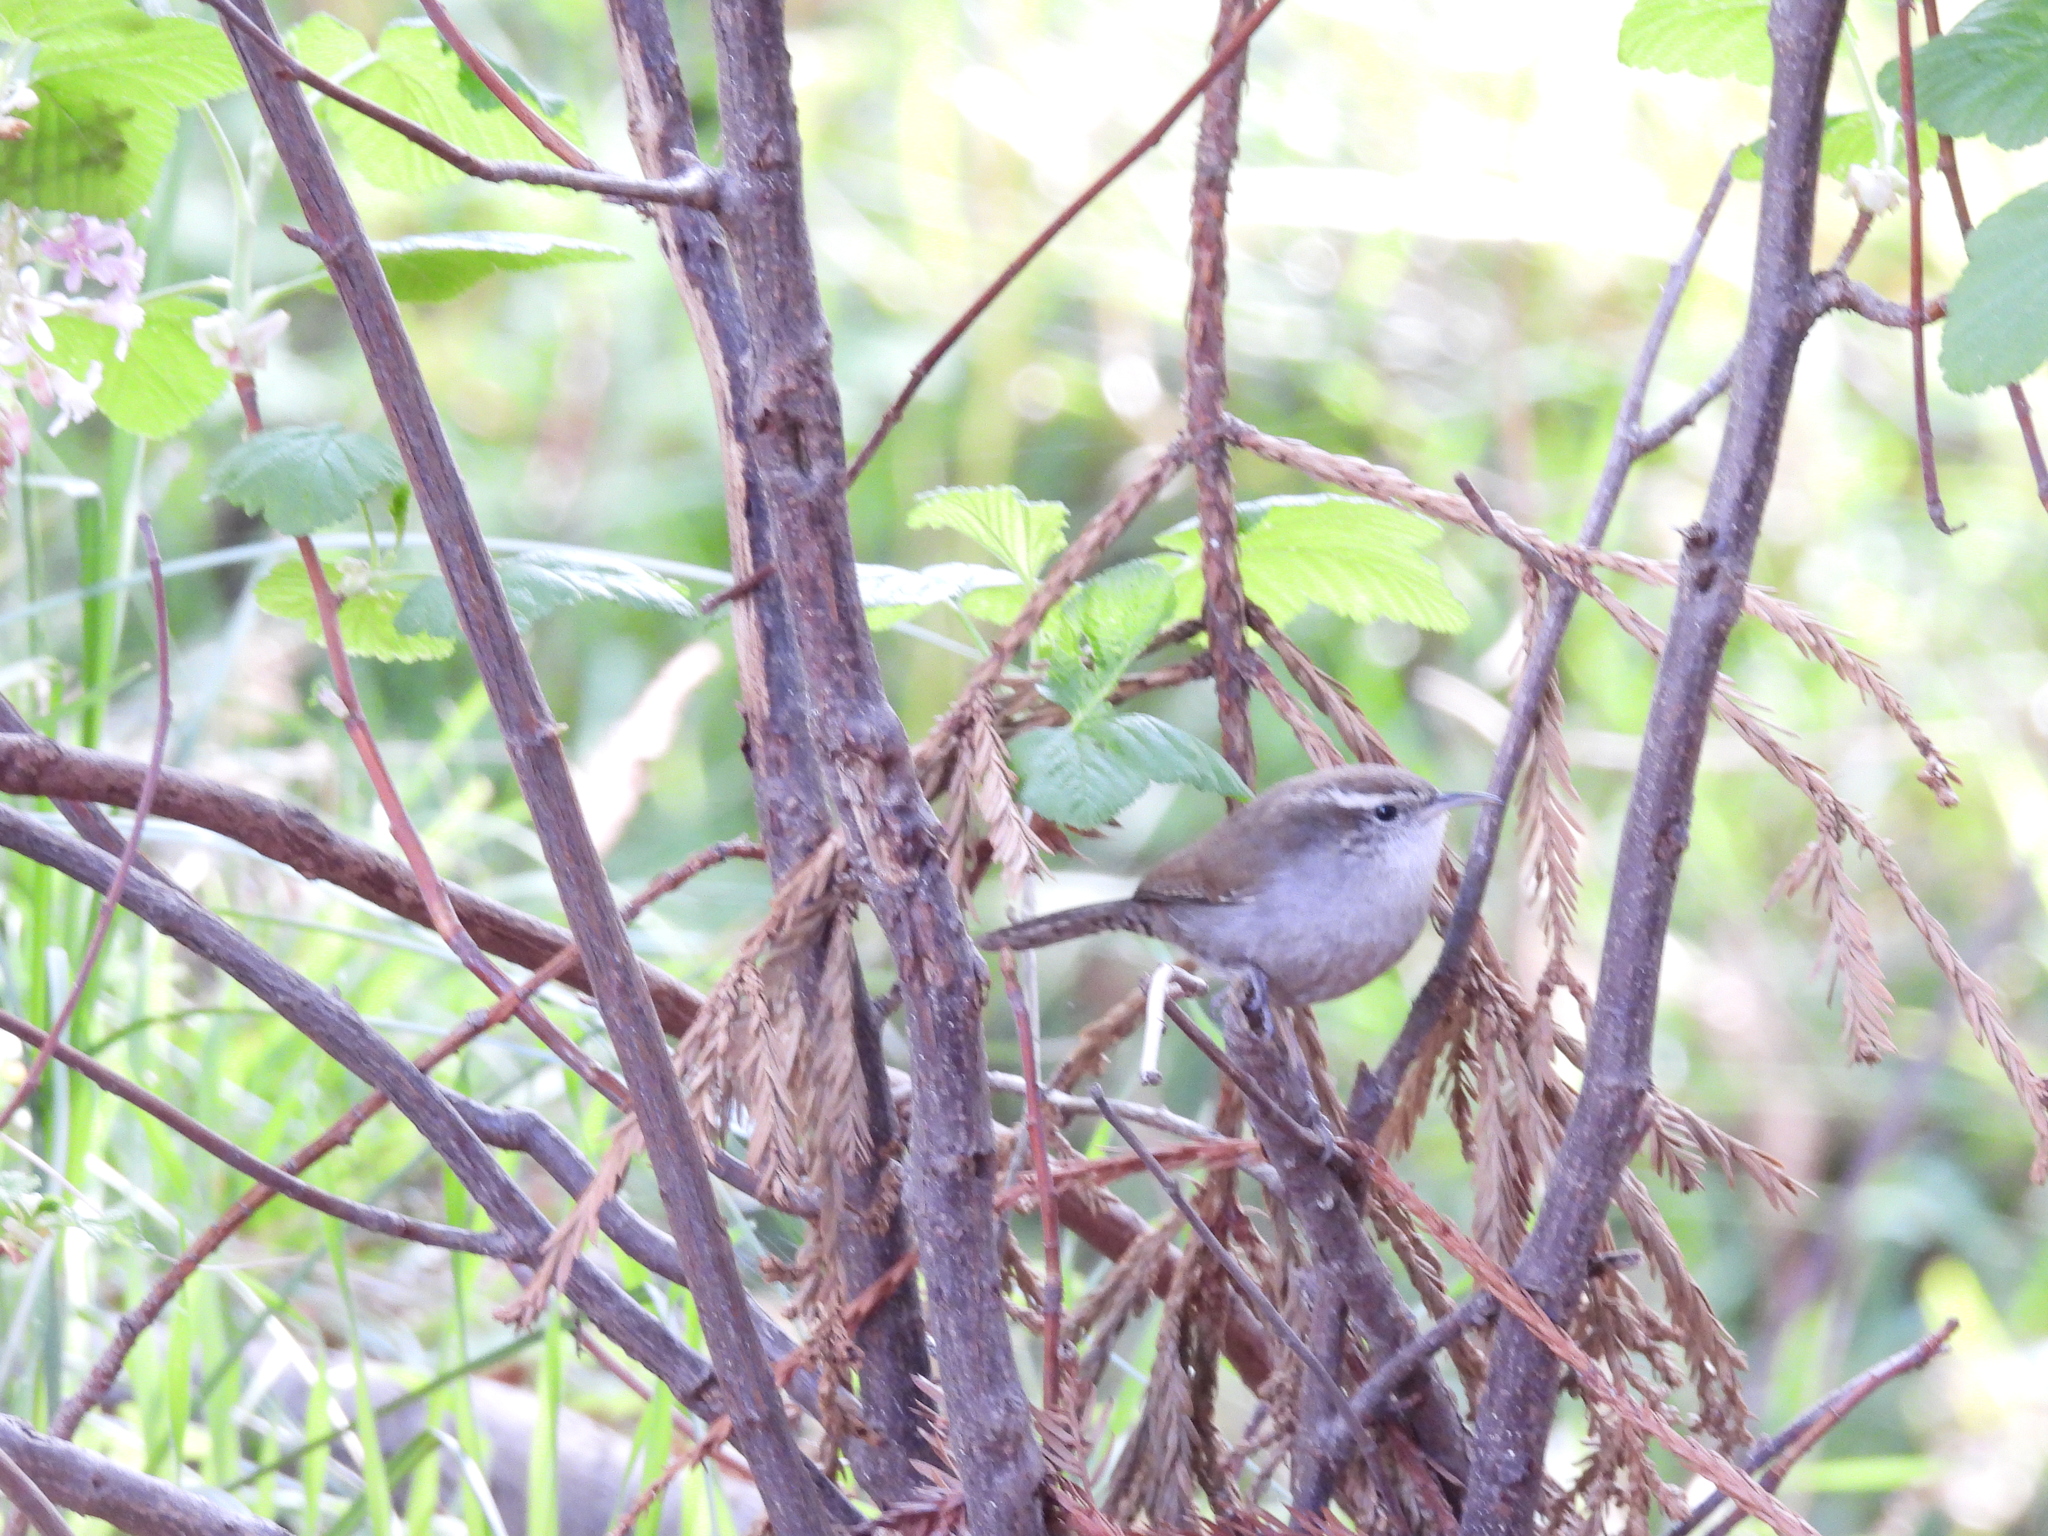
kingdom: Animalia
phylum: Chordata
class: Aves
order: Passeriformes
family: Troglodytidae
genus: Thryomanes
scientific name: Thryomanes bewickii
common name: Bewick's wren
